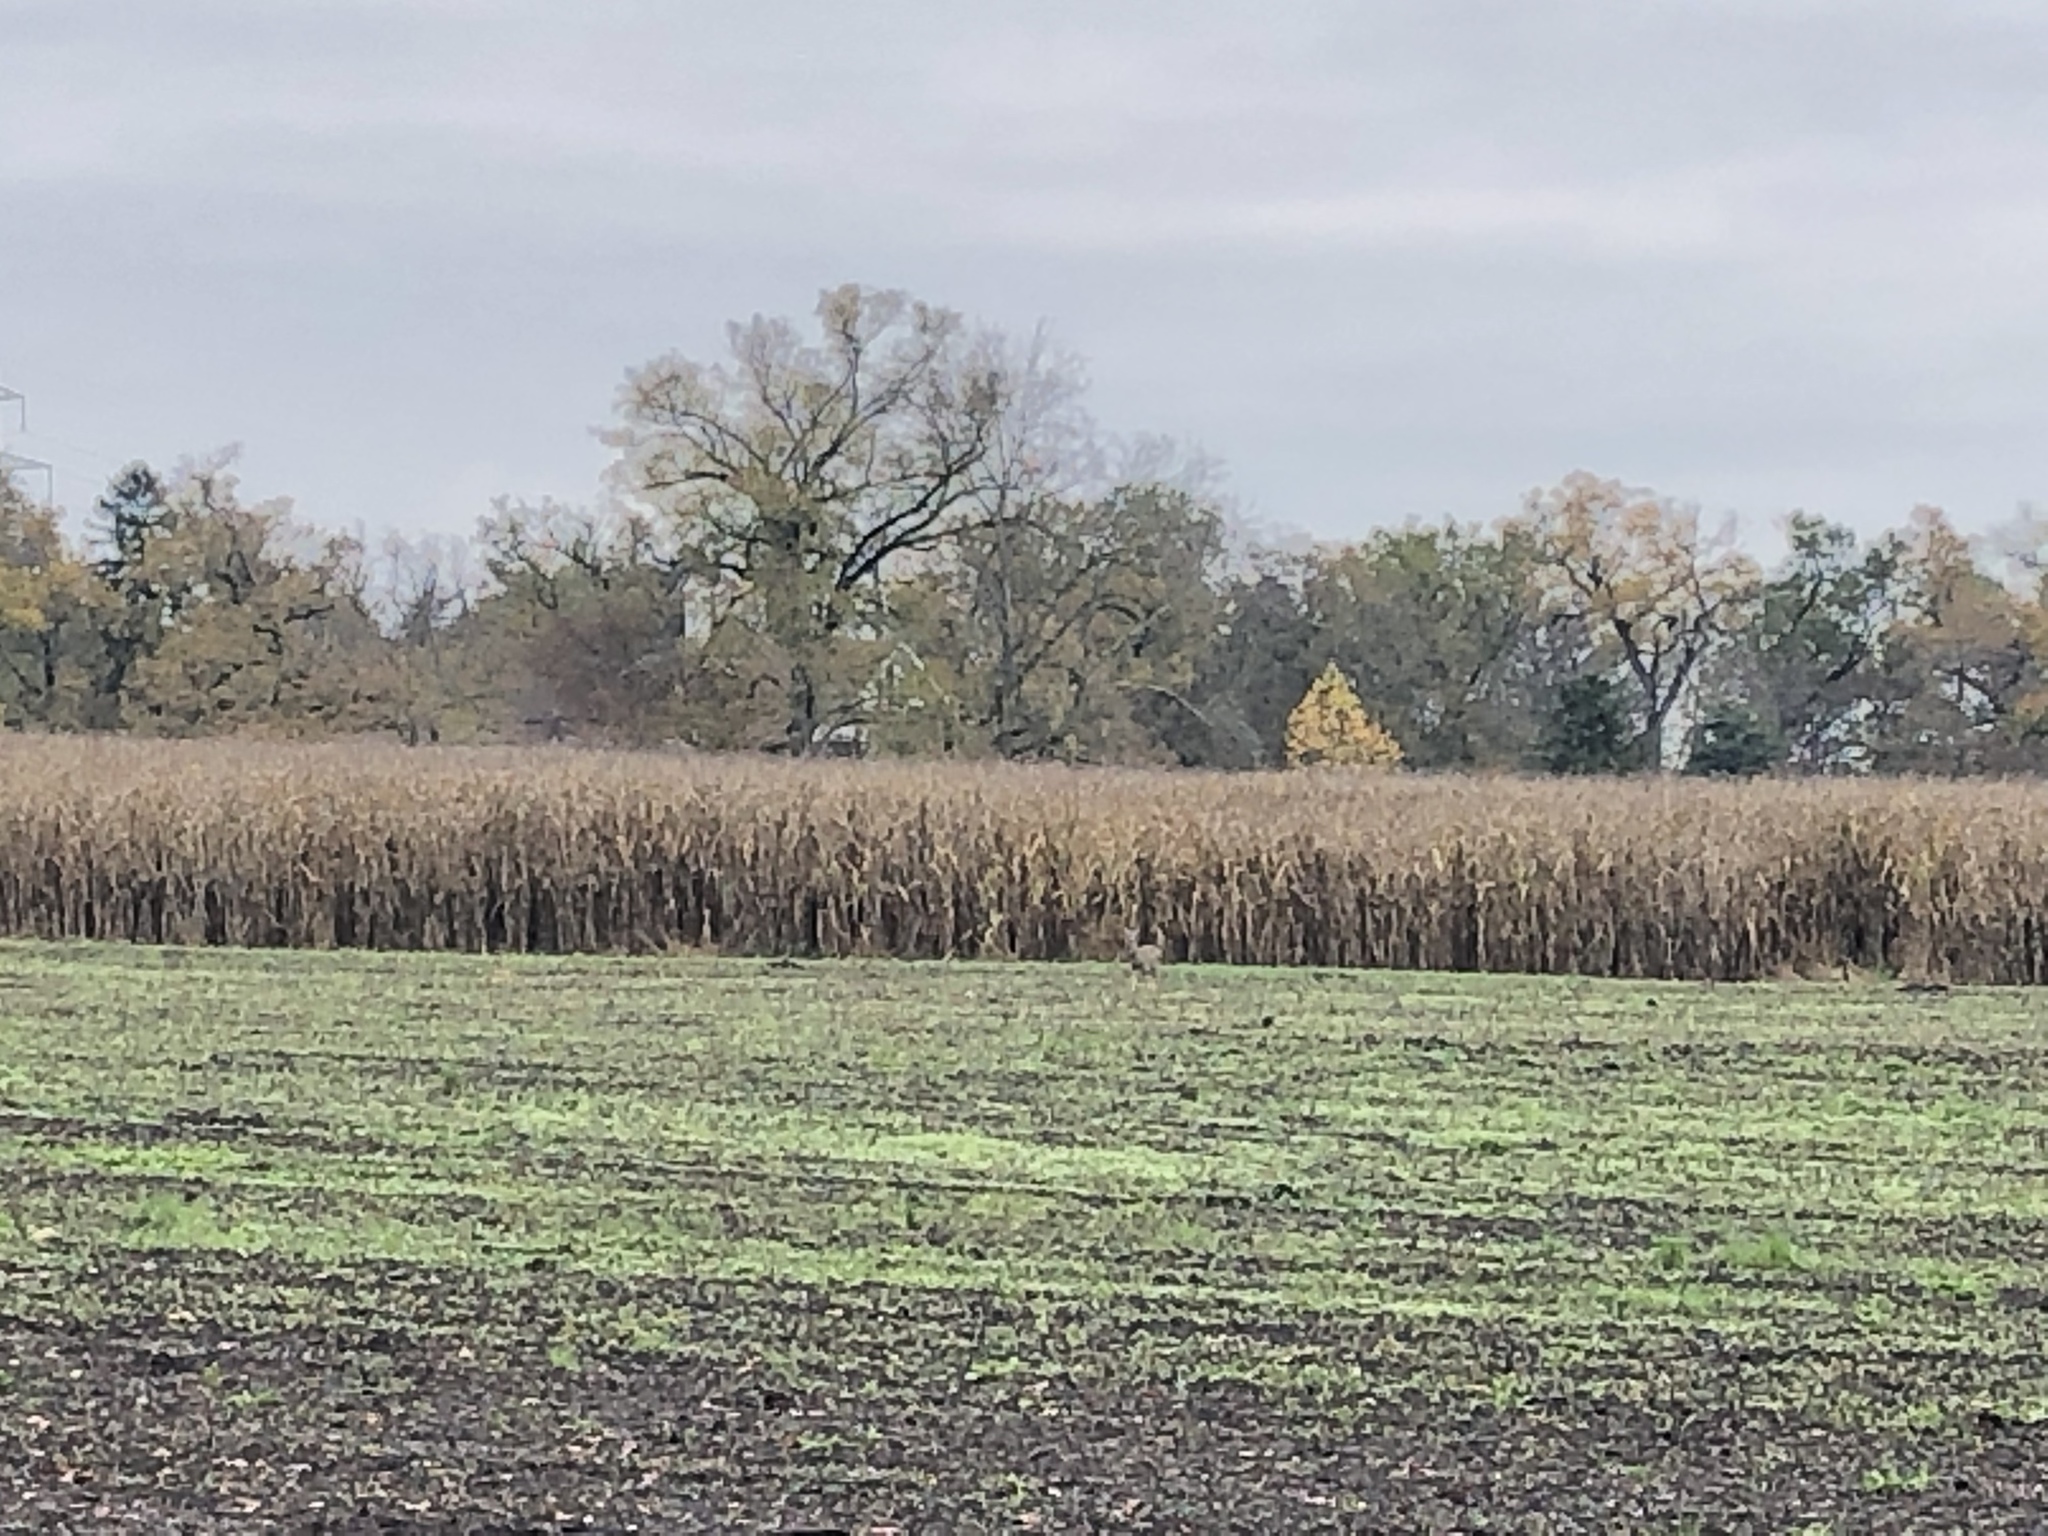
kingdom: Animalia
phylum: Chordata
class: Mammalia
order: Artiodactyla
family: Cervidae
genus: Capreolus
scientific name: Capreolus capreolus
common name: Western roe deer
